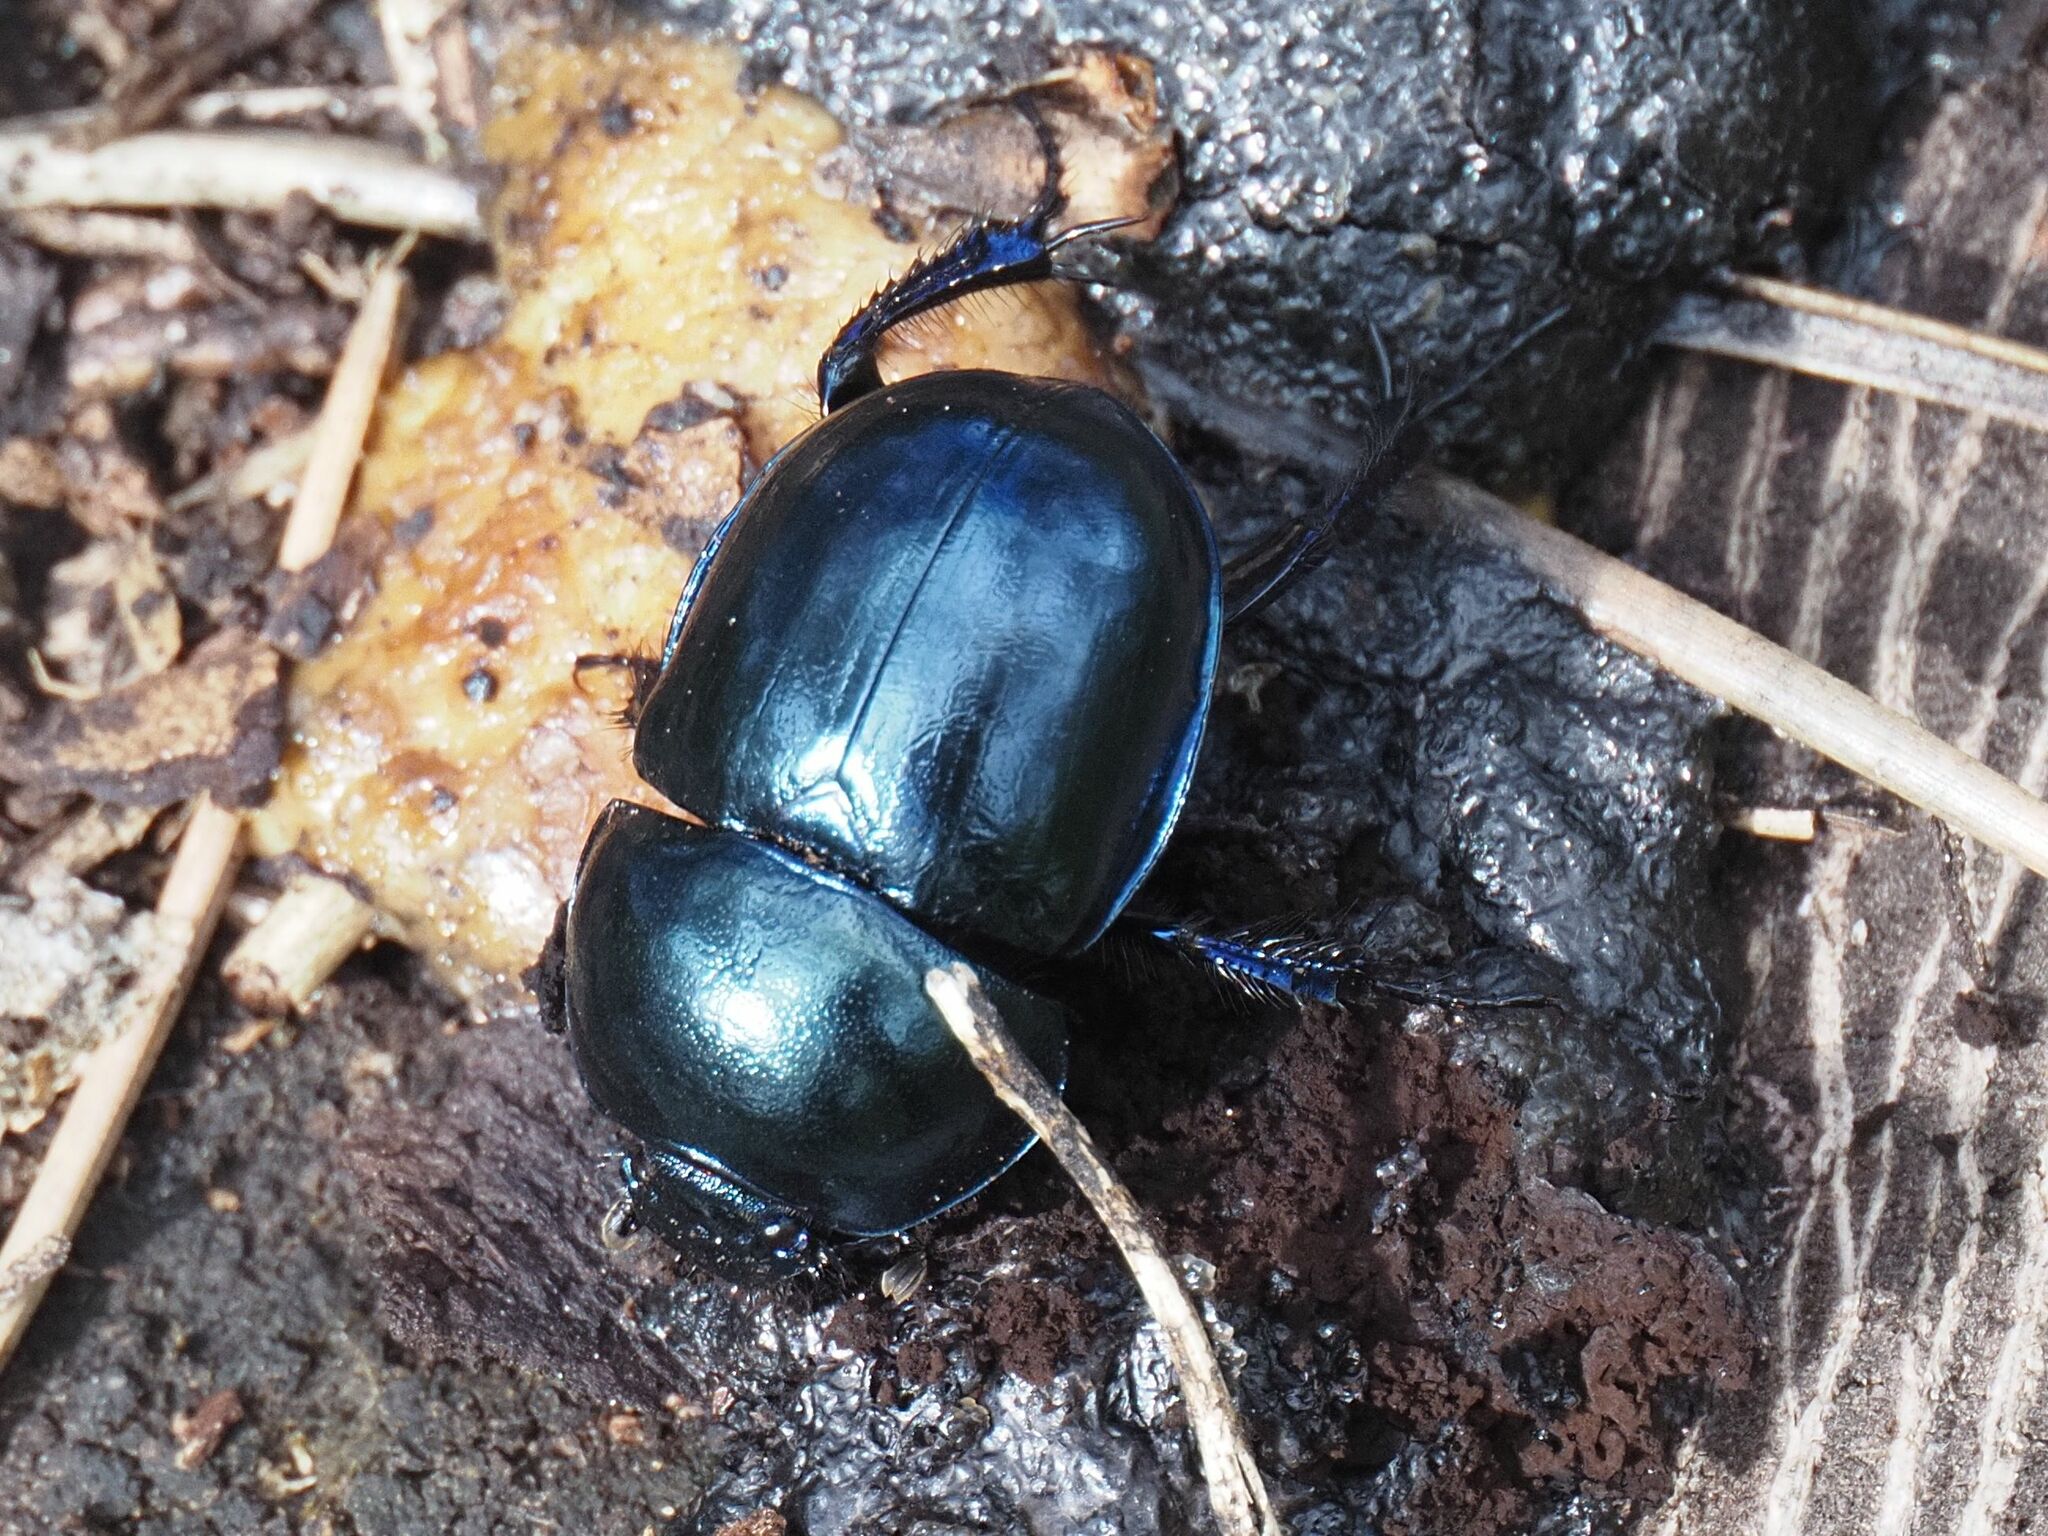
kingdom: Animalia
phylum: Arthropoda
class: Insecta
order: Coleoptera
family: Geotrupidae
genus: Trypocopris
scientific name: Trypocopris vernalis
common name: Spring dumbledor
